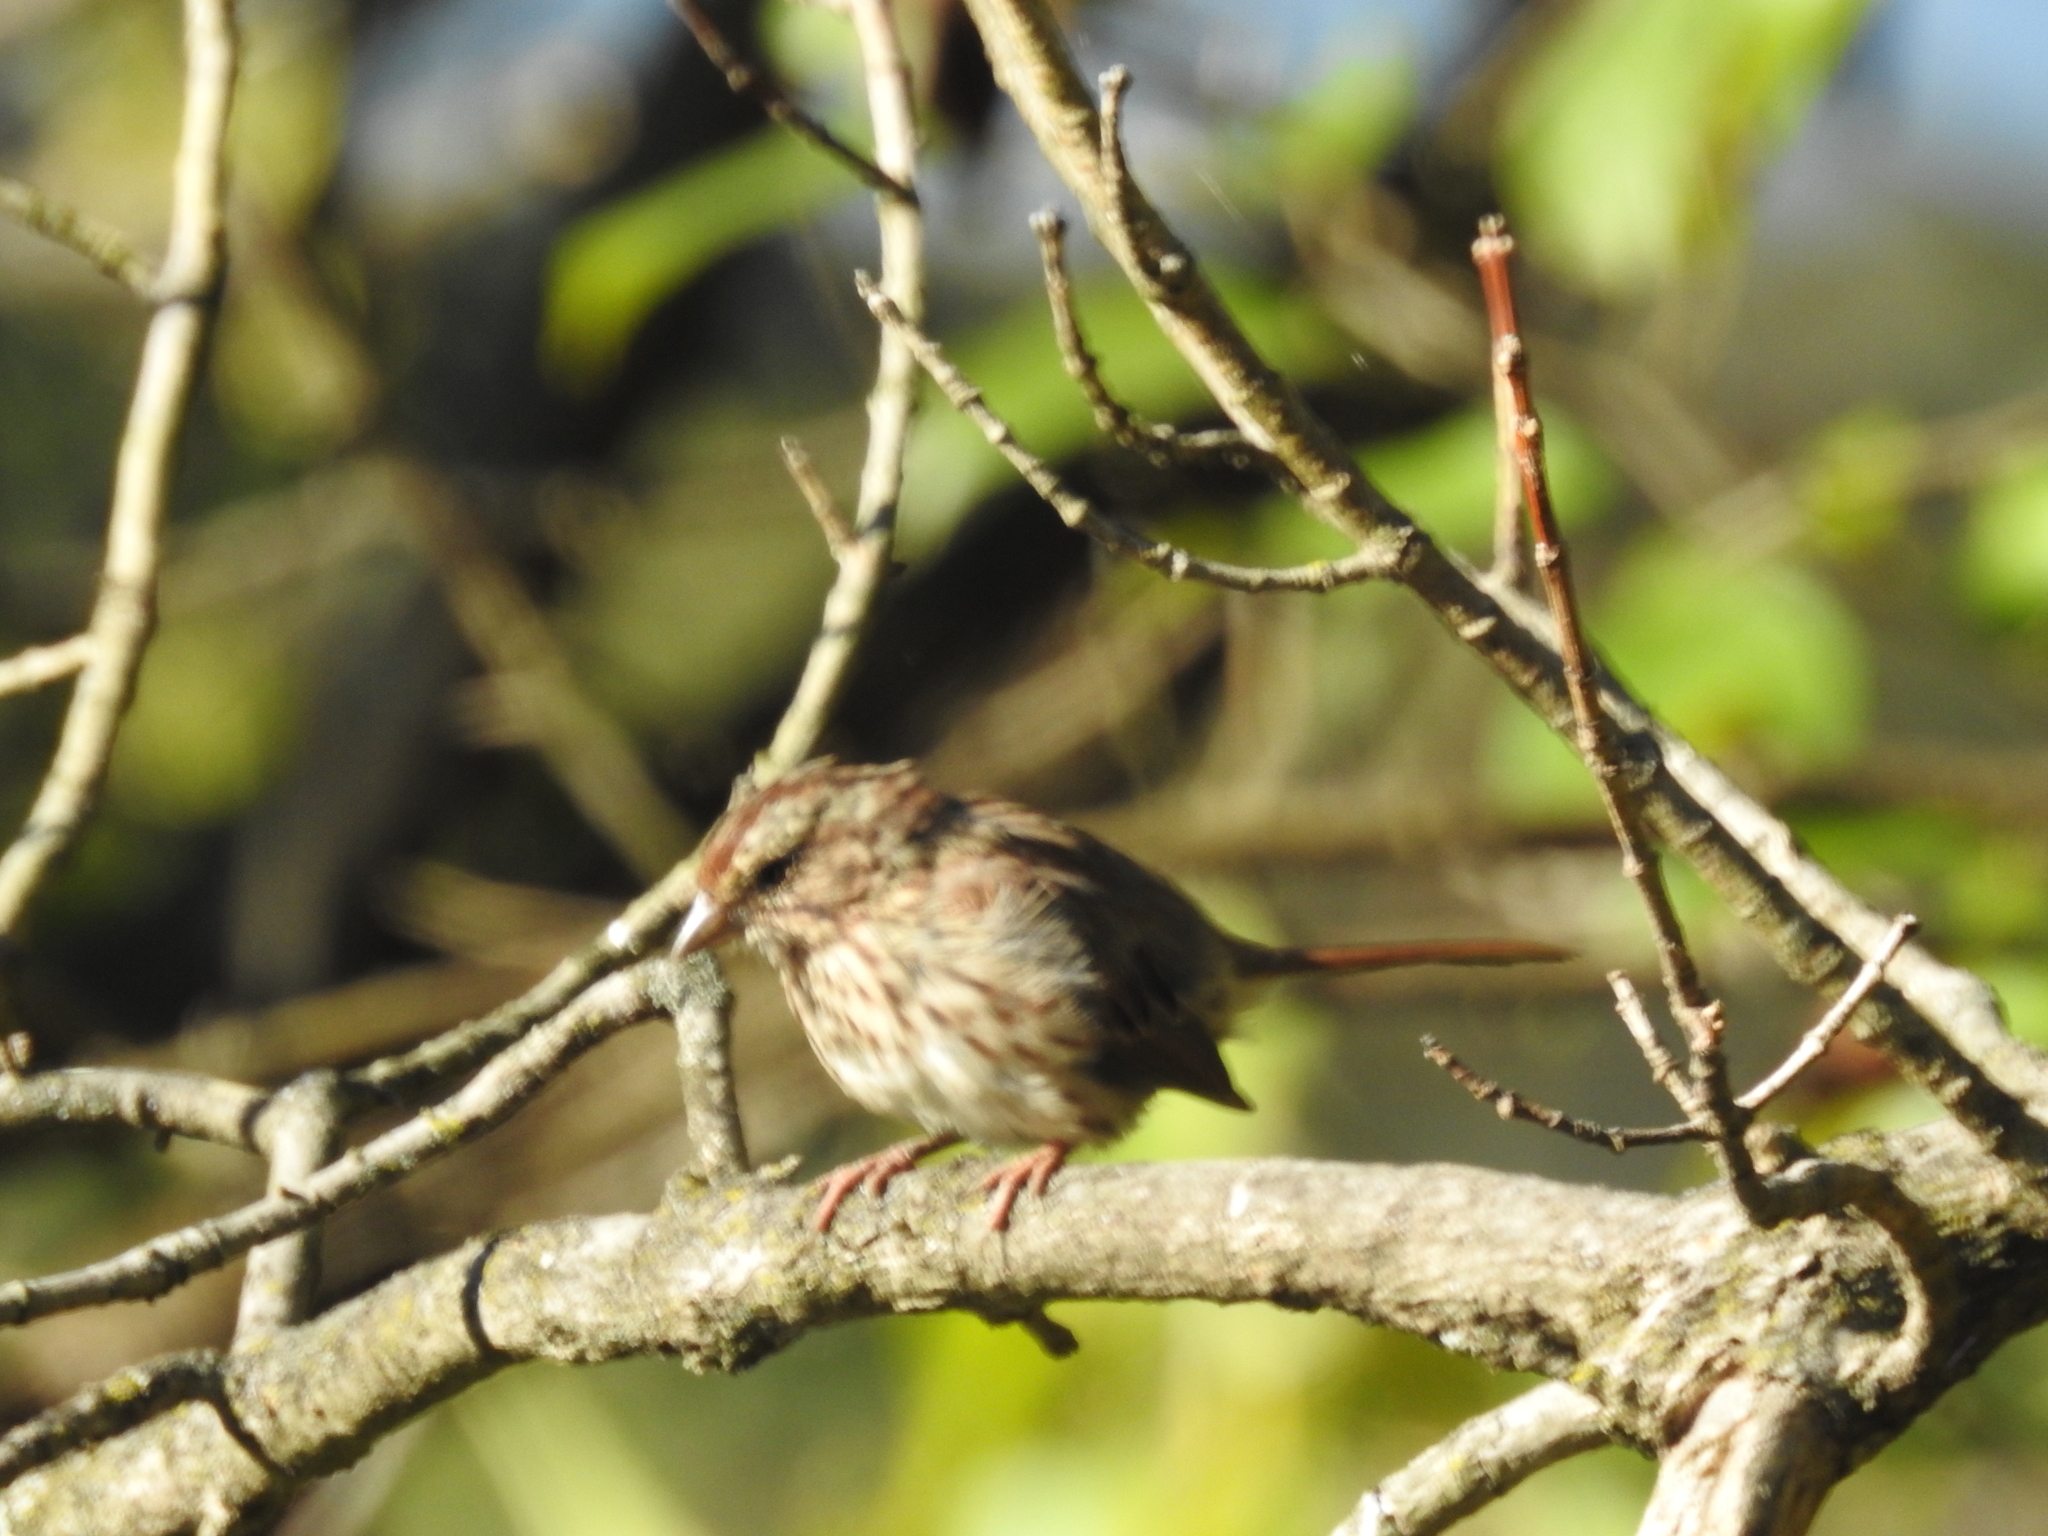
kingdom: Animalia
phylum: Chordata
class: Aves
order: Passeriformes
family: Passerellidae
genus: Melospiza
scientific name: Melospiza melodia
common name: Song sparrow
